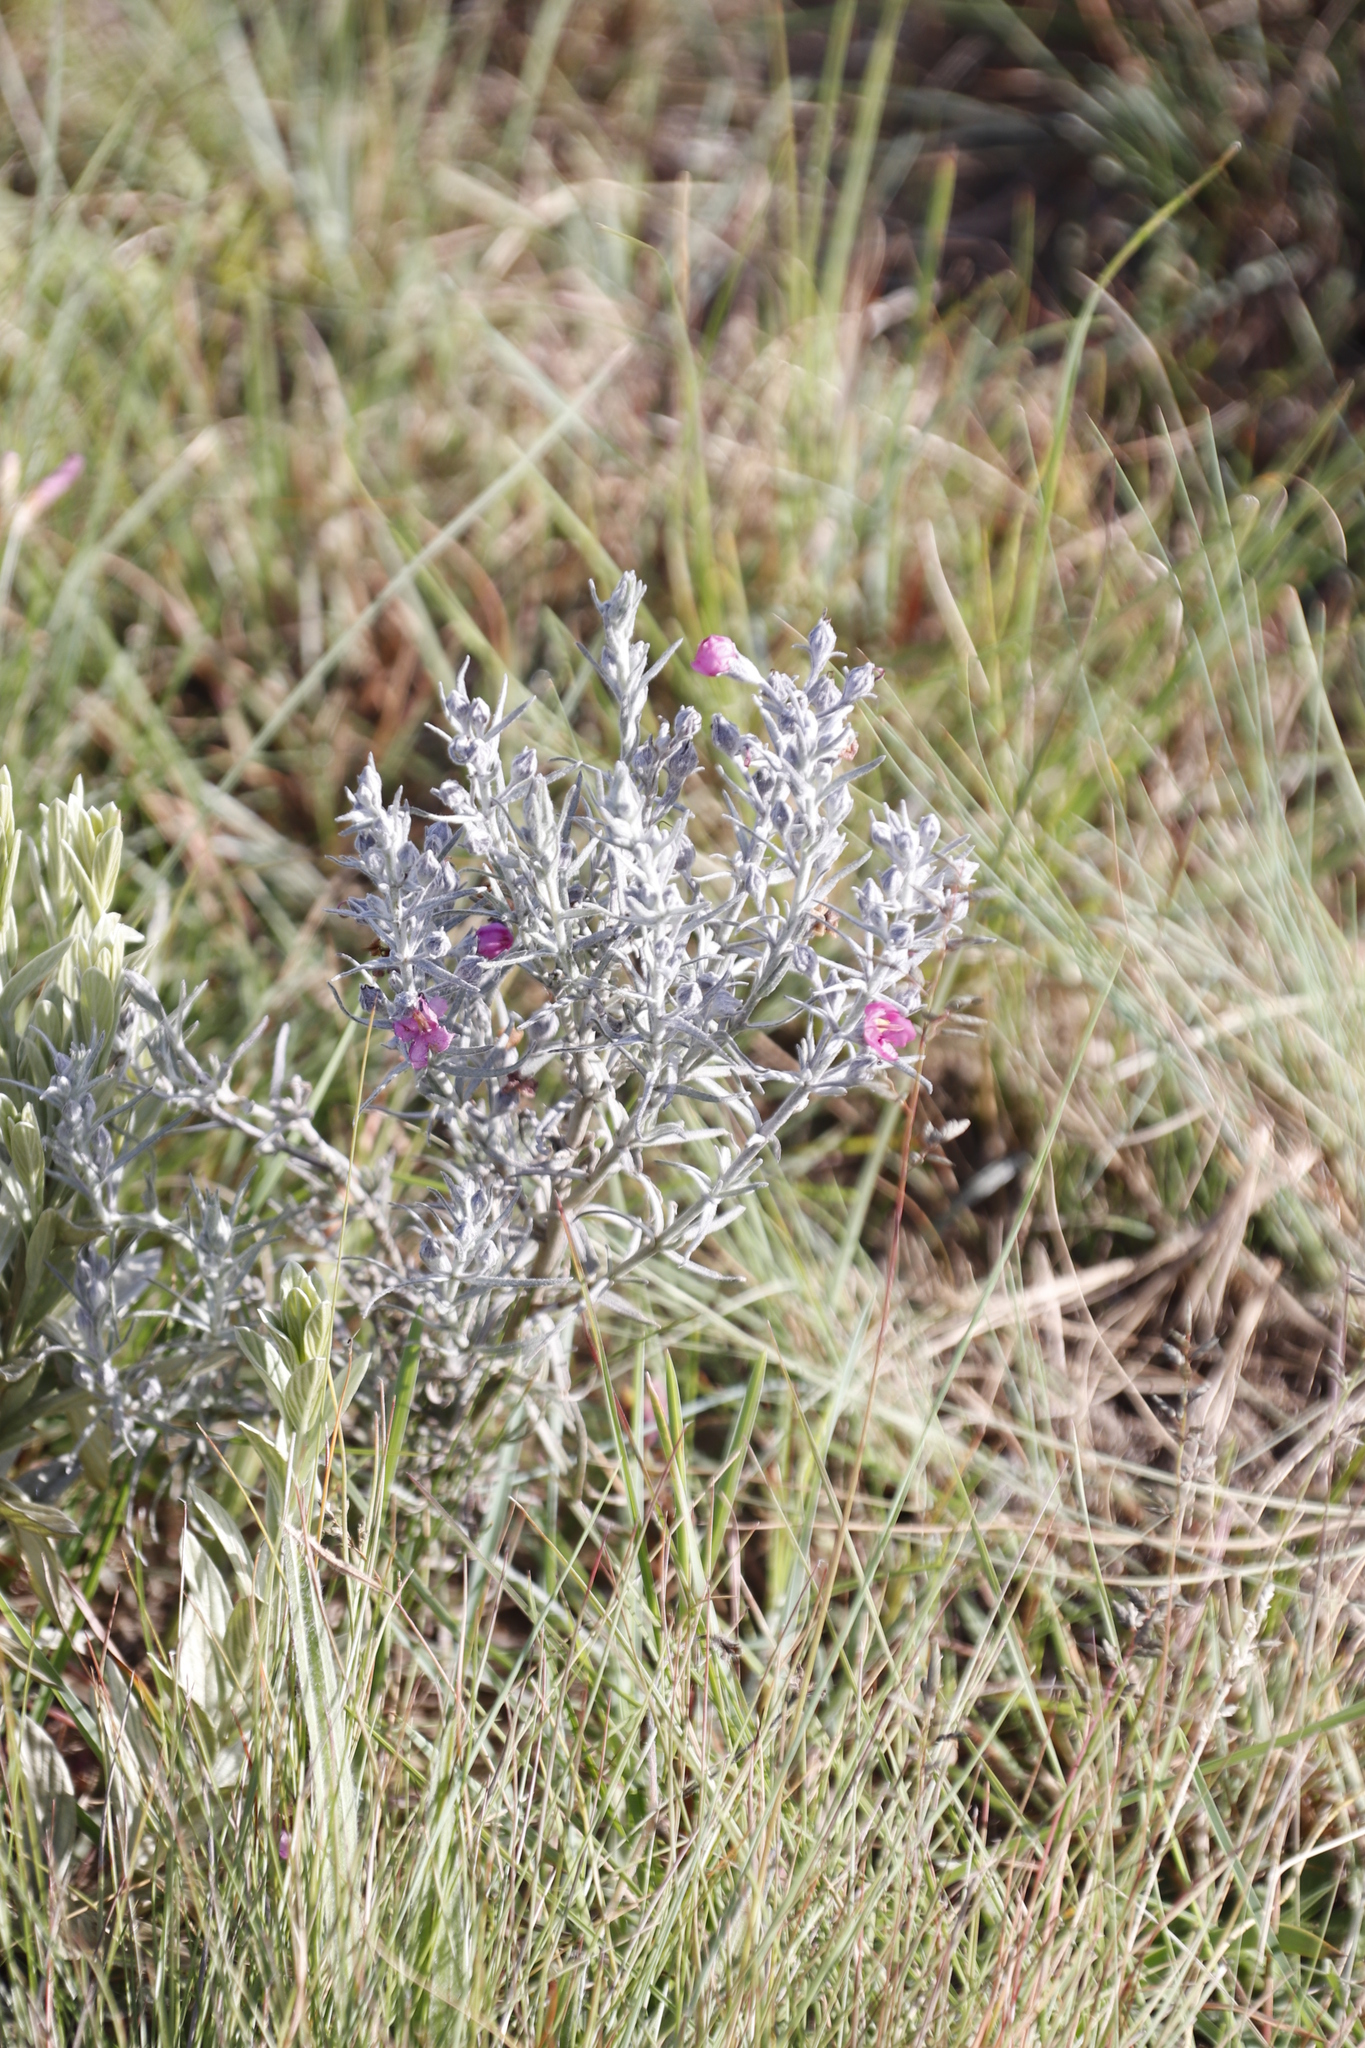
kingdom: Plantae
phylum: Tracheophyta
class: Magnoliopsida
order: Lamiales
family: Orobanchaceae
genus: Sopubia
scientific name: Sopubia cana
